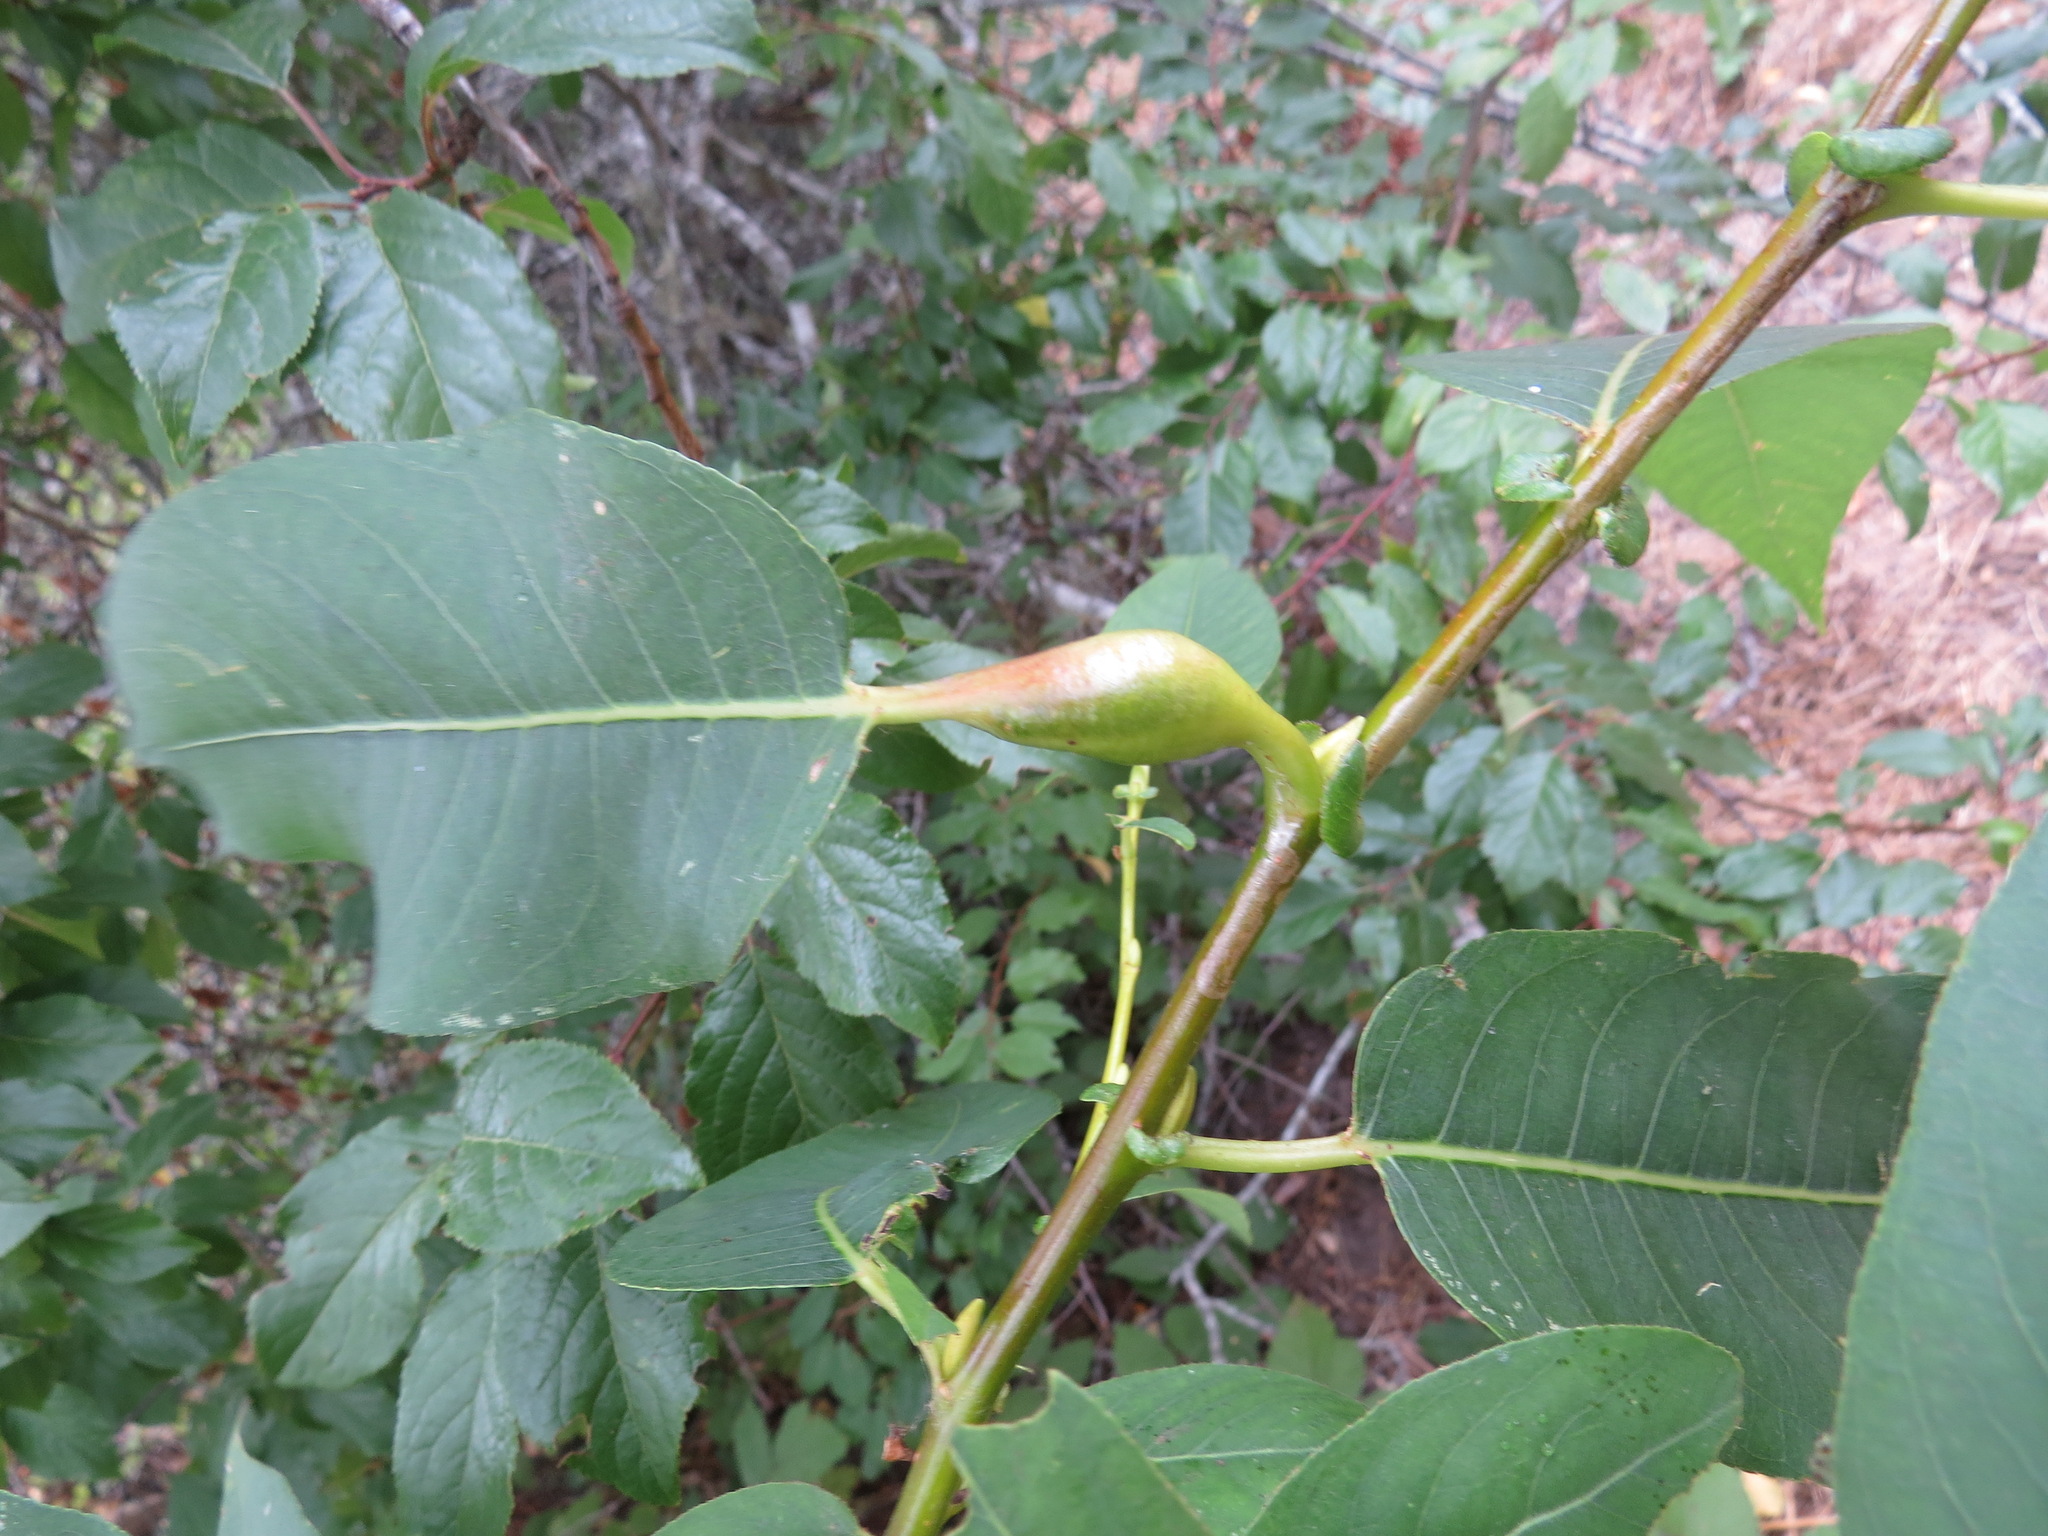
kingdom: Animalia
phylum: Arthropoda
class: Insecta
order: Hymenoptera
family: Tenthredinidae
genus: Euura
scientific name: Euura
